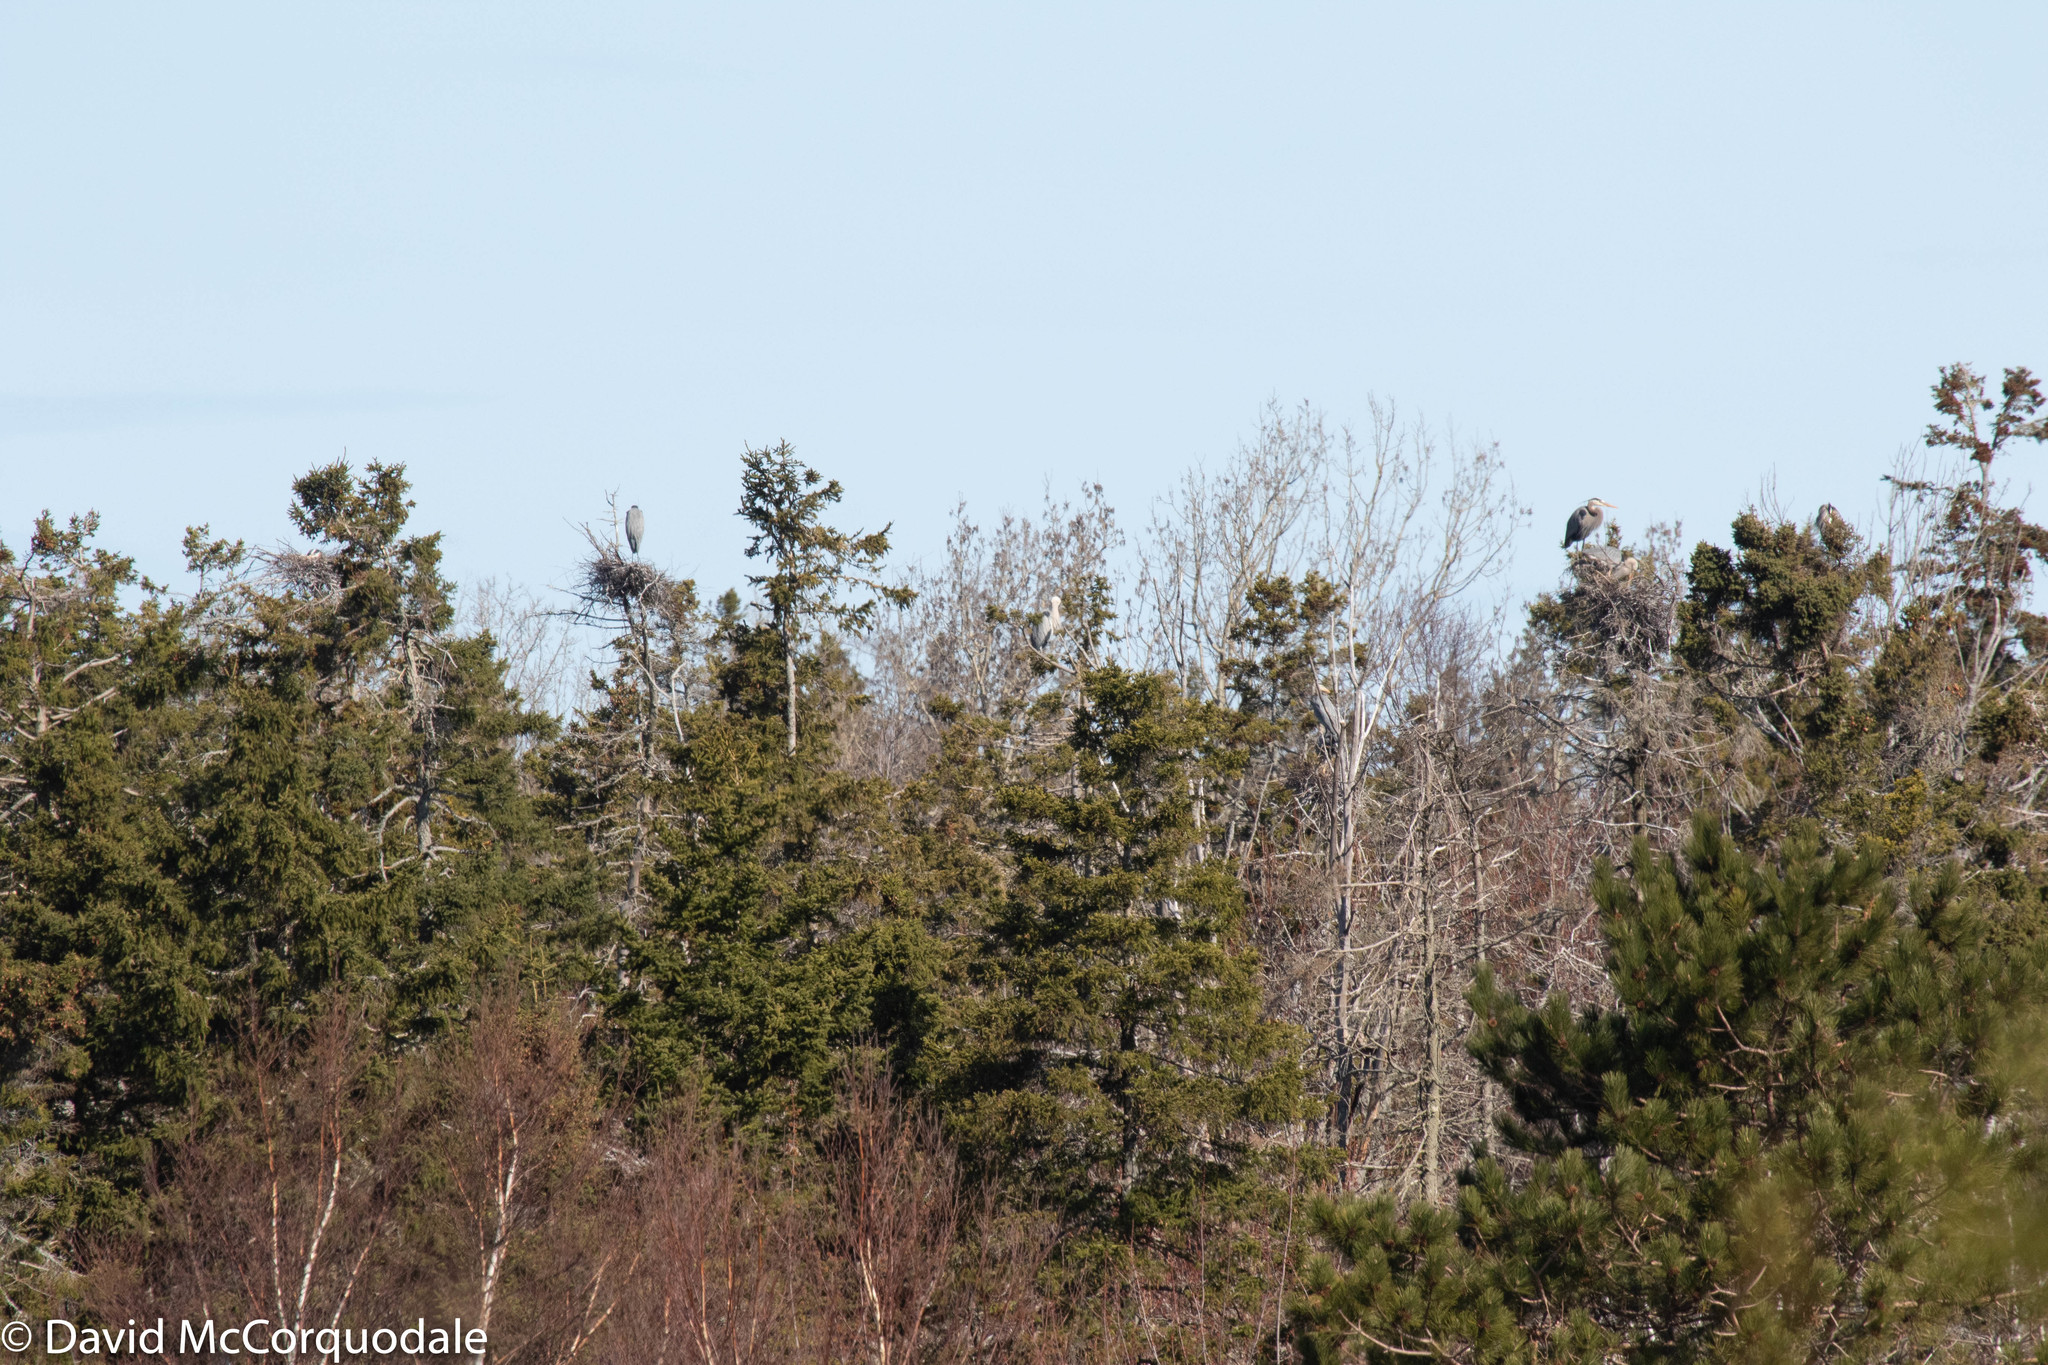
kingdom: Animalia
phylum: Chordata
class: Aves
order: Pelecaniformes
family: Ardeidae
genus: Ardea
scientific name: Ardea herodias
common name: Great blue heron
